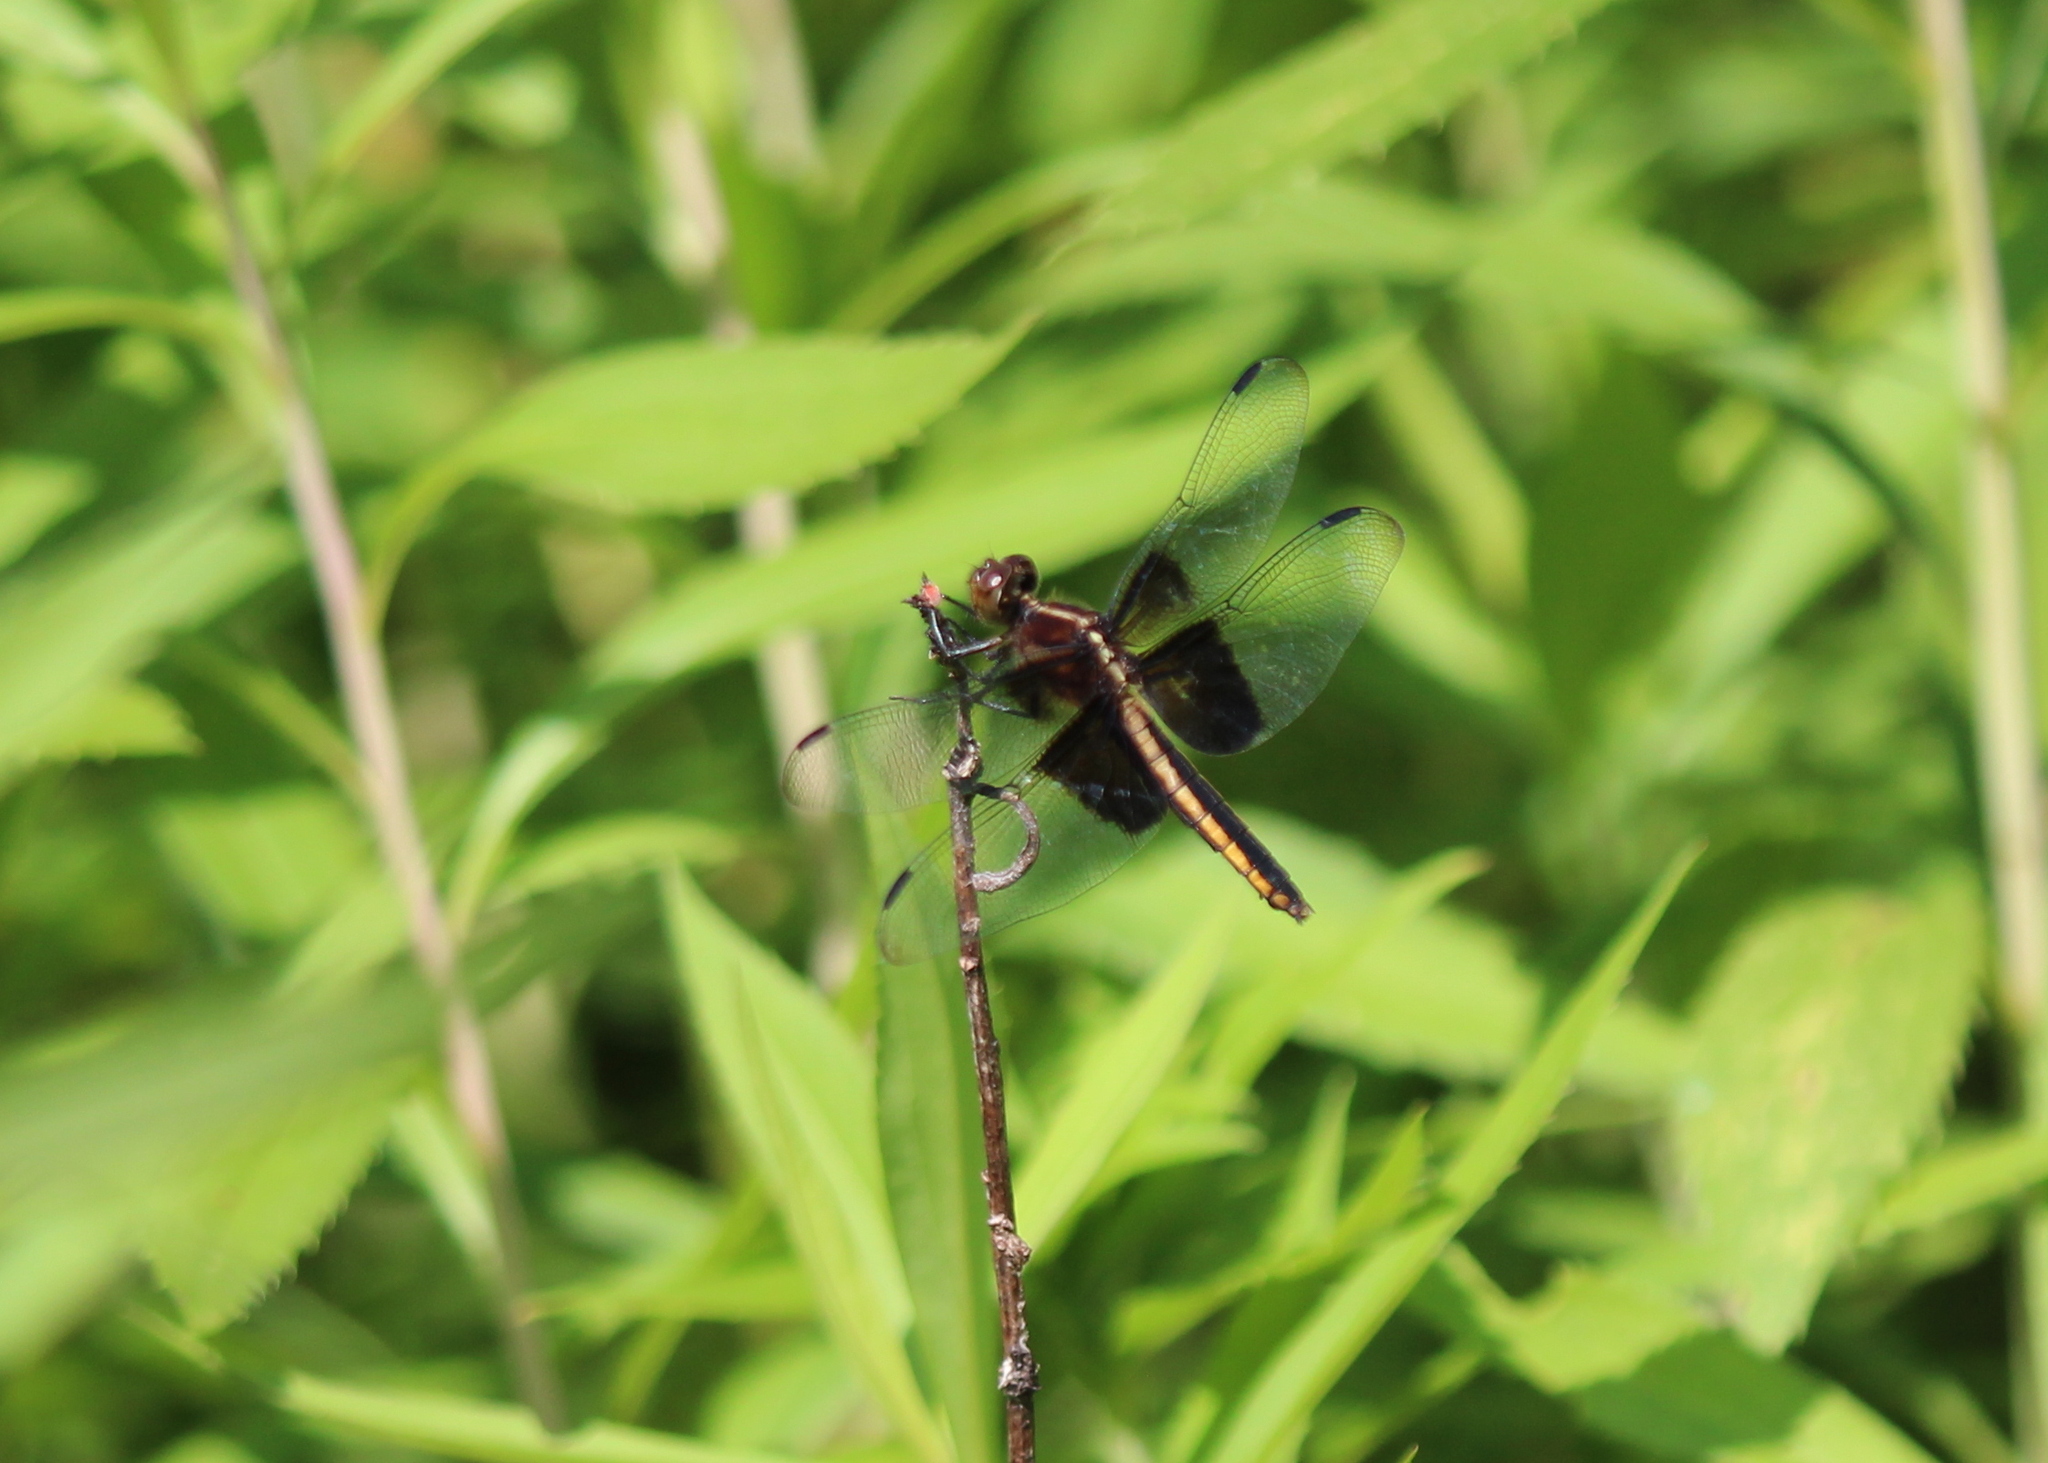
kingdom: Animalia
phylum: Arthropoda
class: Insecta
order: Odonata
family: Libellulidae
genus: Libellula
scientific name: Libellula luctuosa
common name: Widow skimmer
